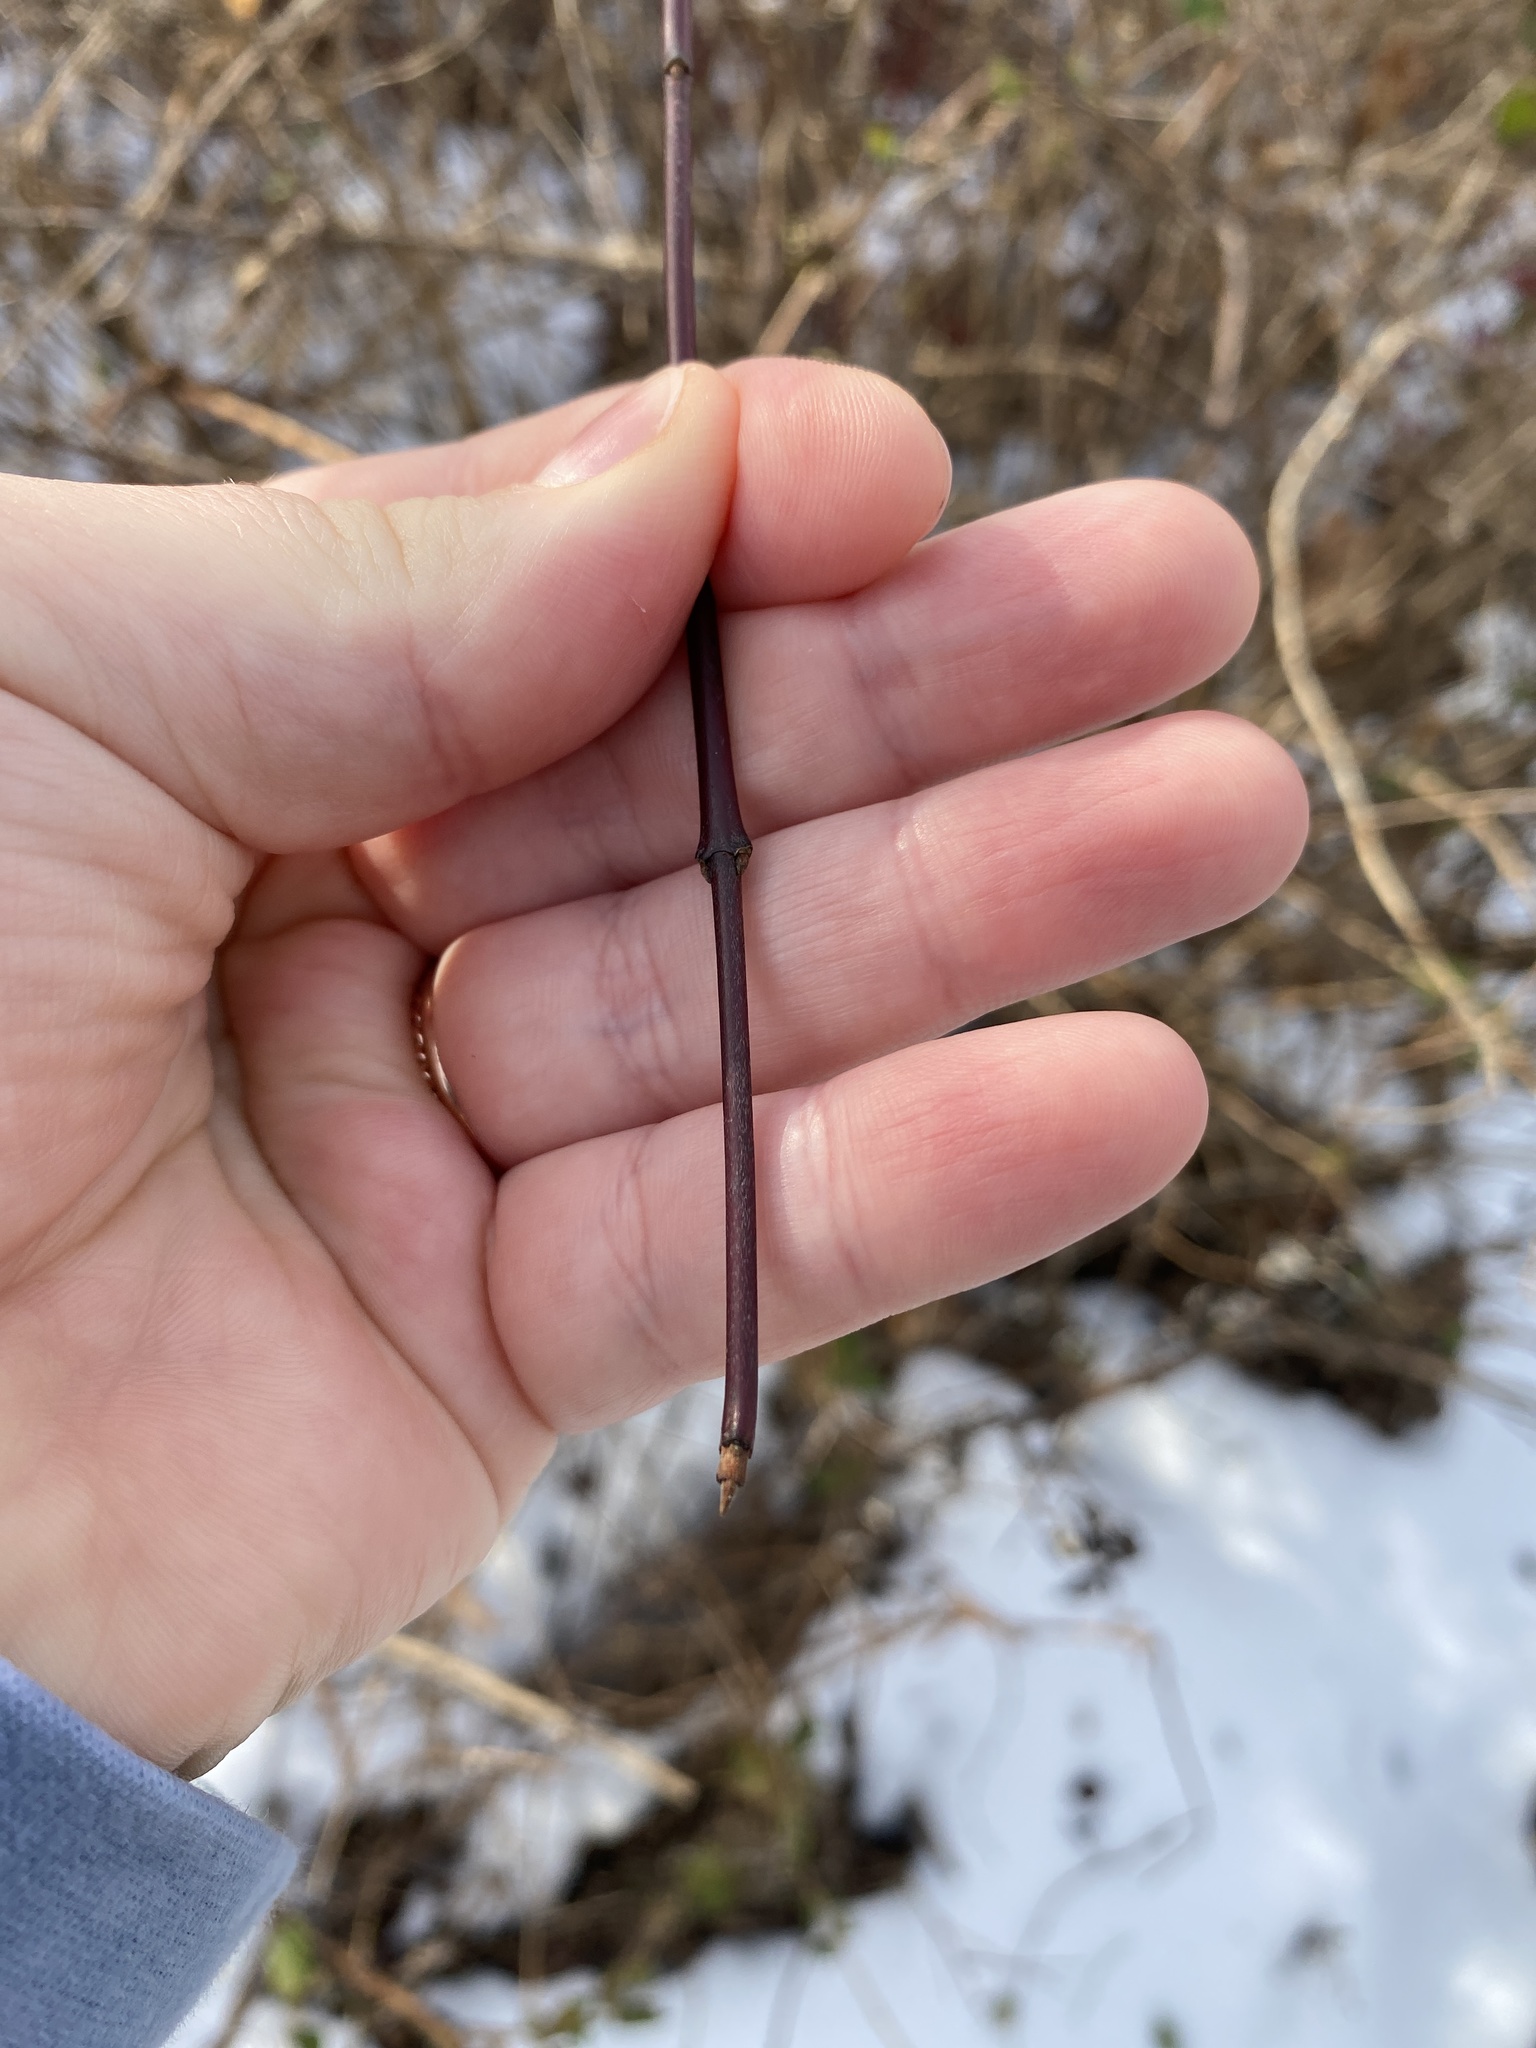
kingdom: Plantae
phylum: Tracheophyta
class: Magnoliopsida
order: Cornales
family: Cornaceae
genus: Cornus
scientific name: Cornus sericea
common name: Red-osier dogwood
